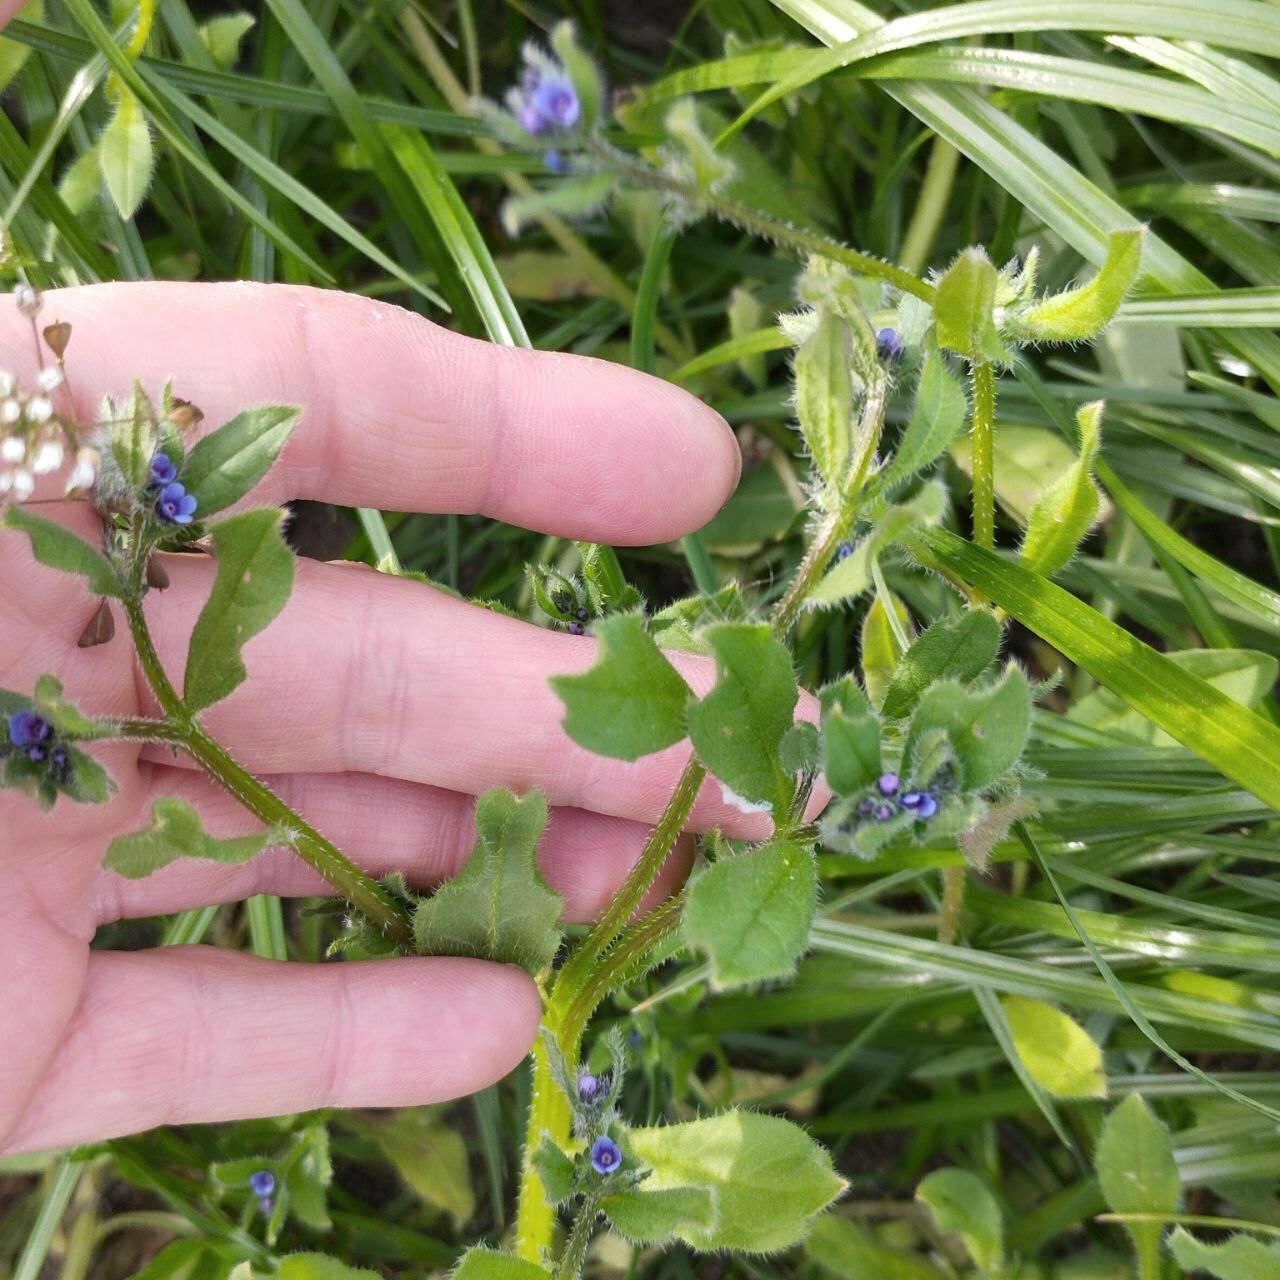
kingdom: Plantae
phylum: Tracheophyta
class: Magnoliopsida
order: Boraginales
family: Boraginaceae
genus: Asperugo
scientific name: Asperugo procumbens
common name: Madwort
